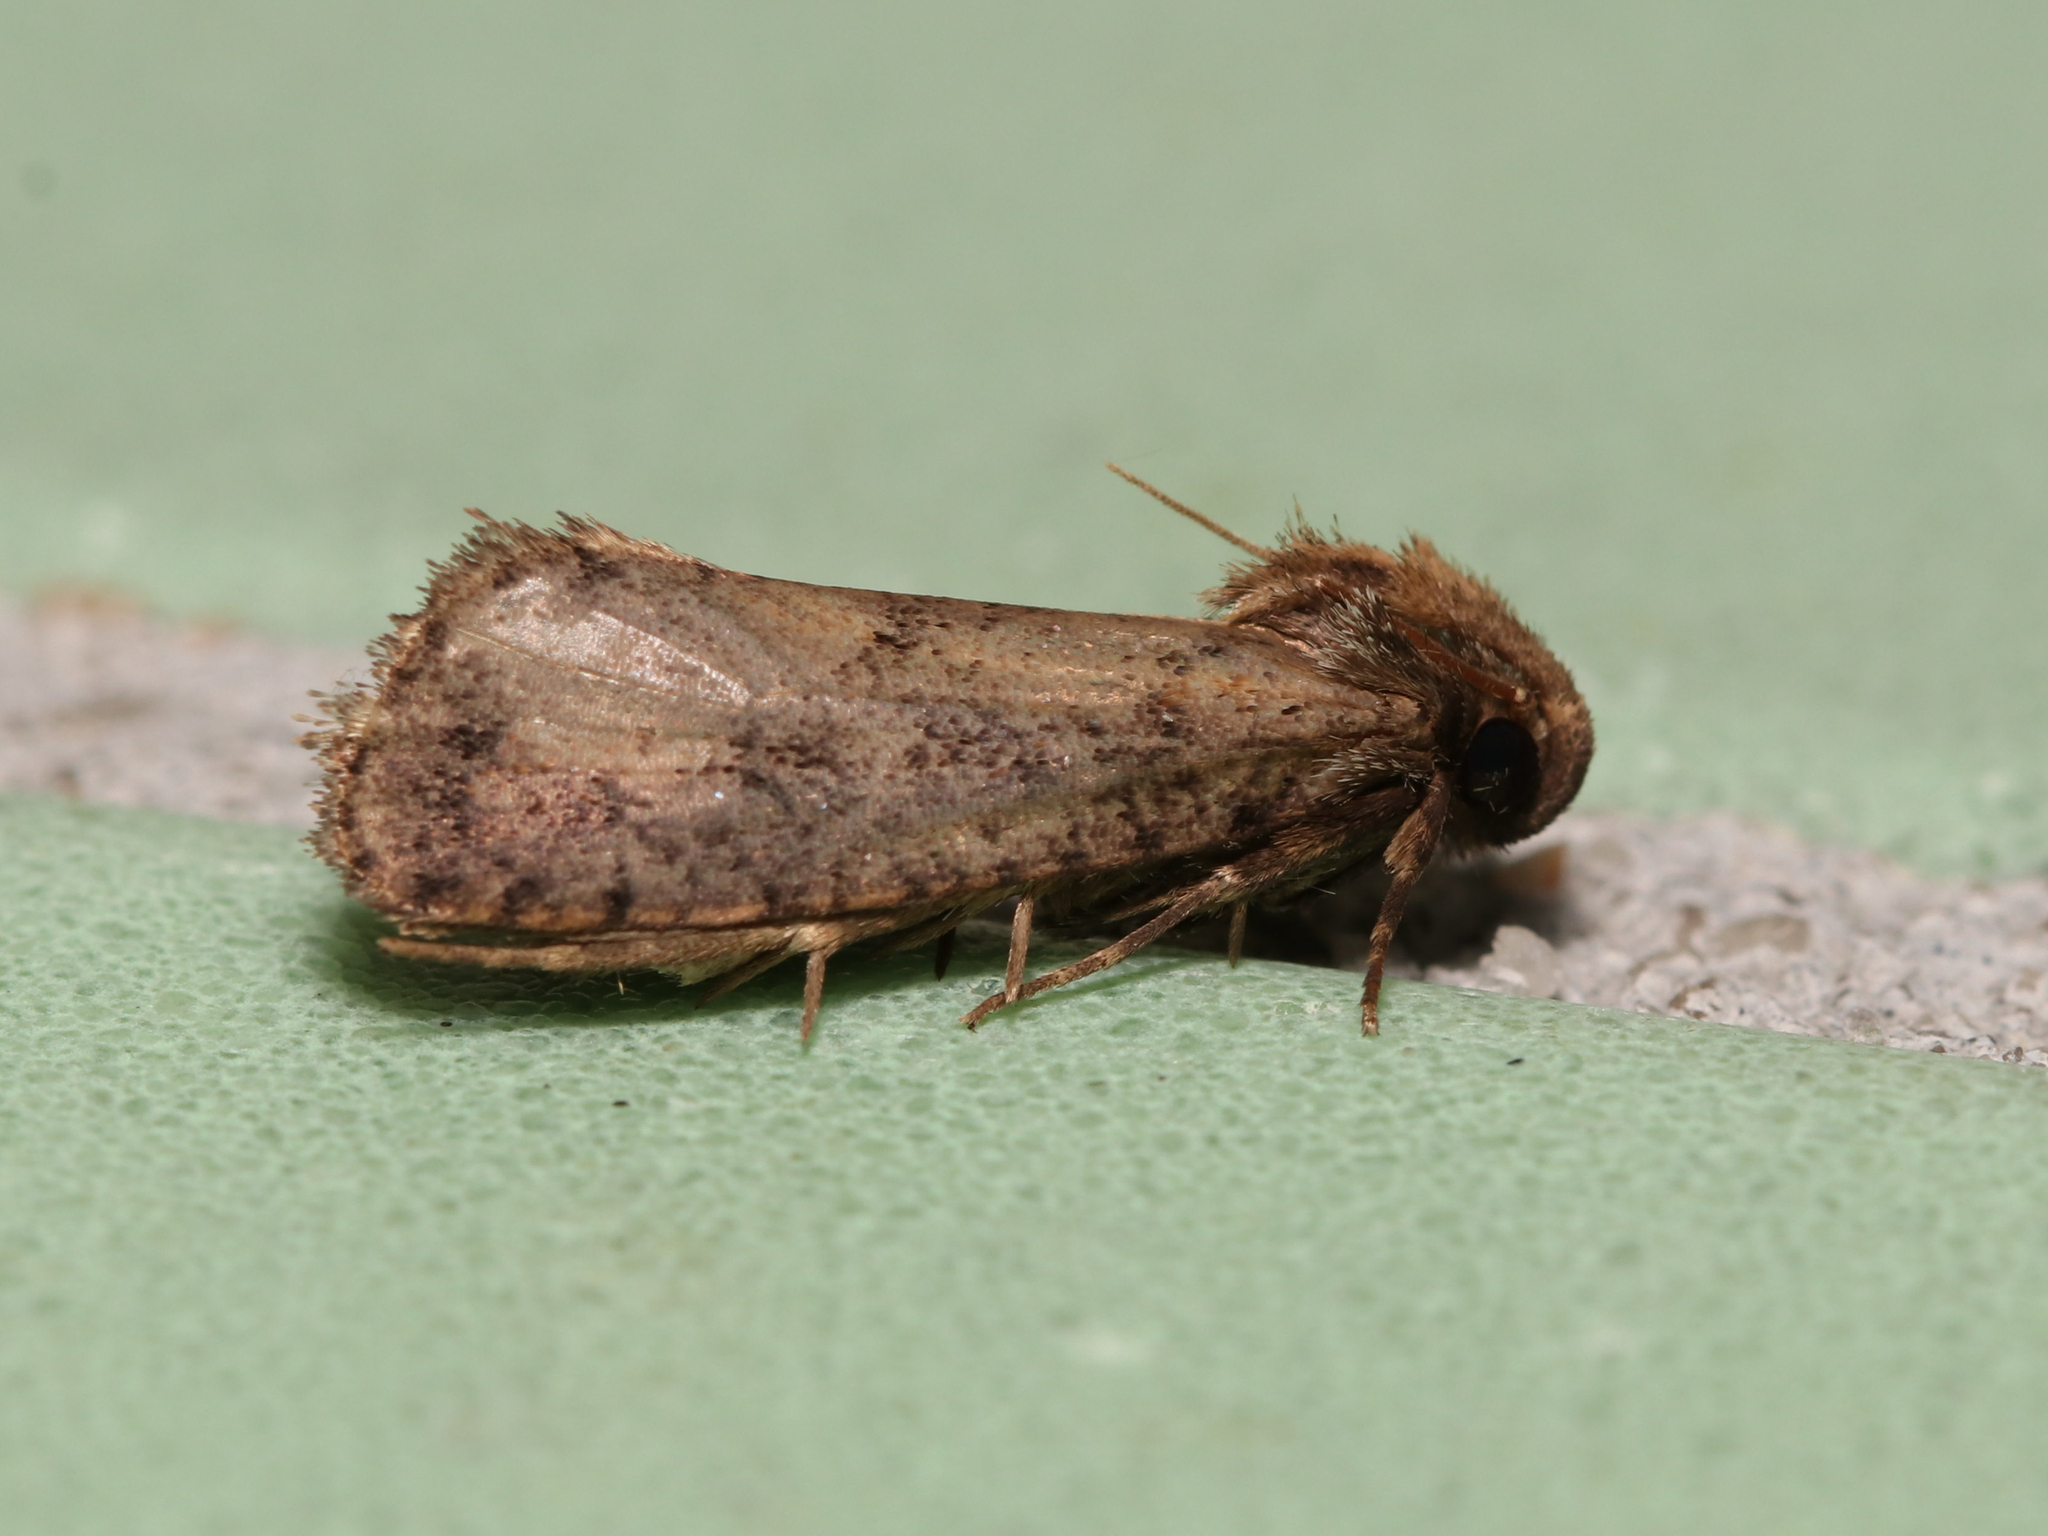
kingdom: Animalia
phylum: Arthropoda
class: Insecta
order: Lepidoptera
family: Tineidae
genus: Acrolophus
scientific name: Acrolophus popeanella
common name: Clemens' grass tubeworm moth
